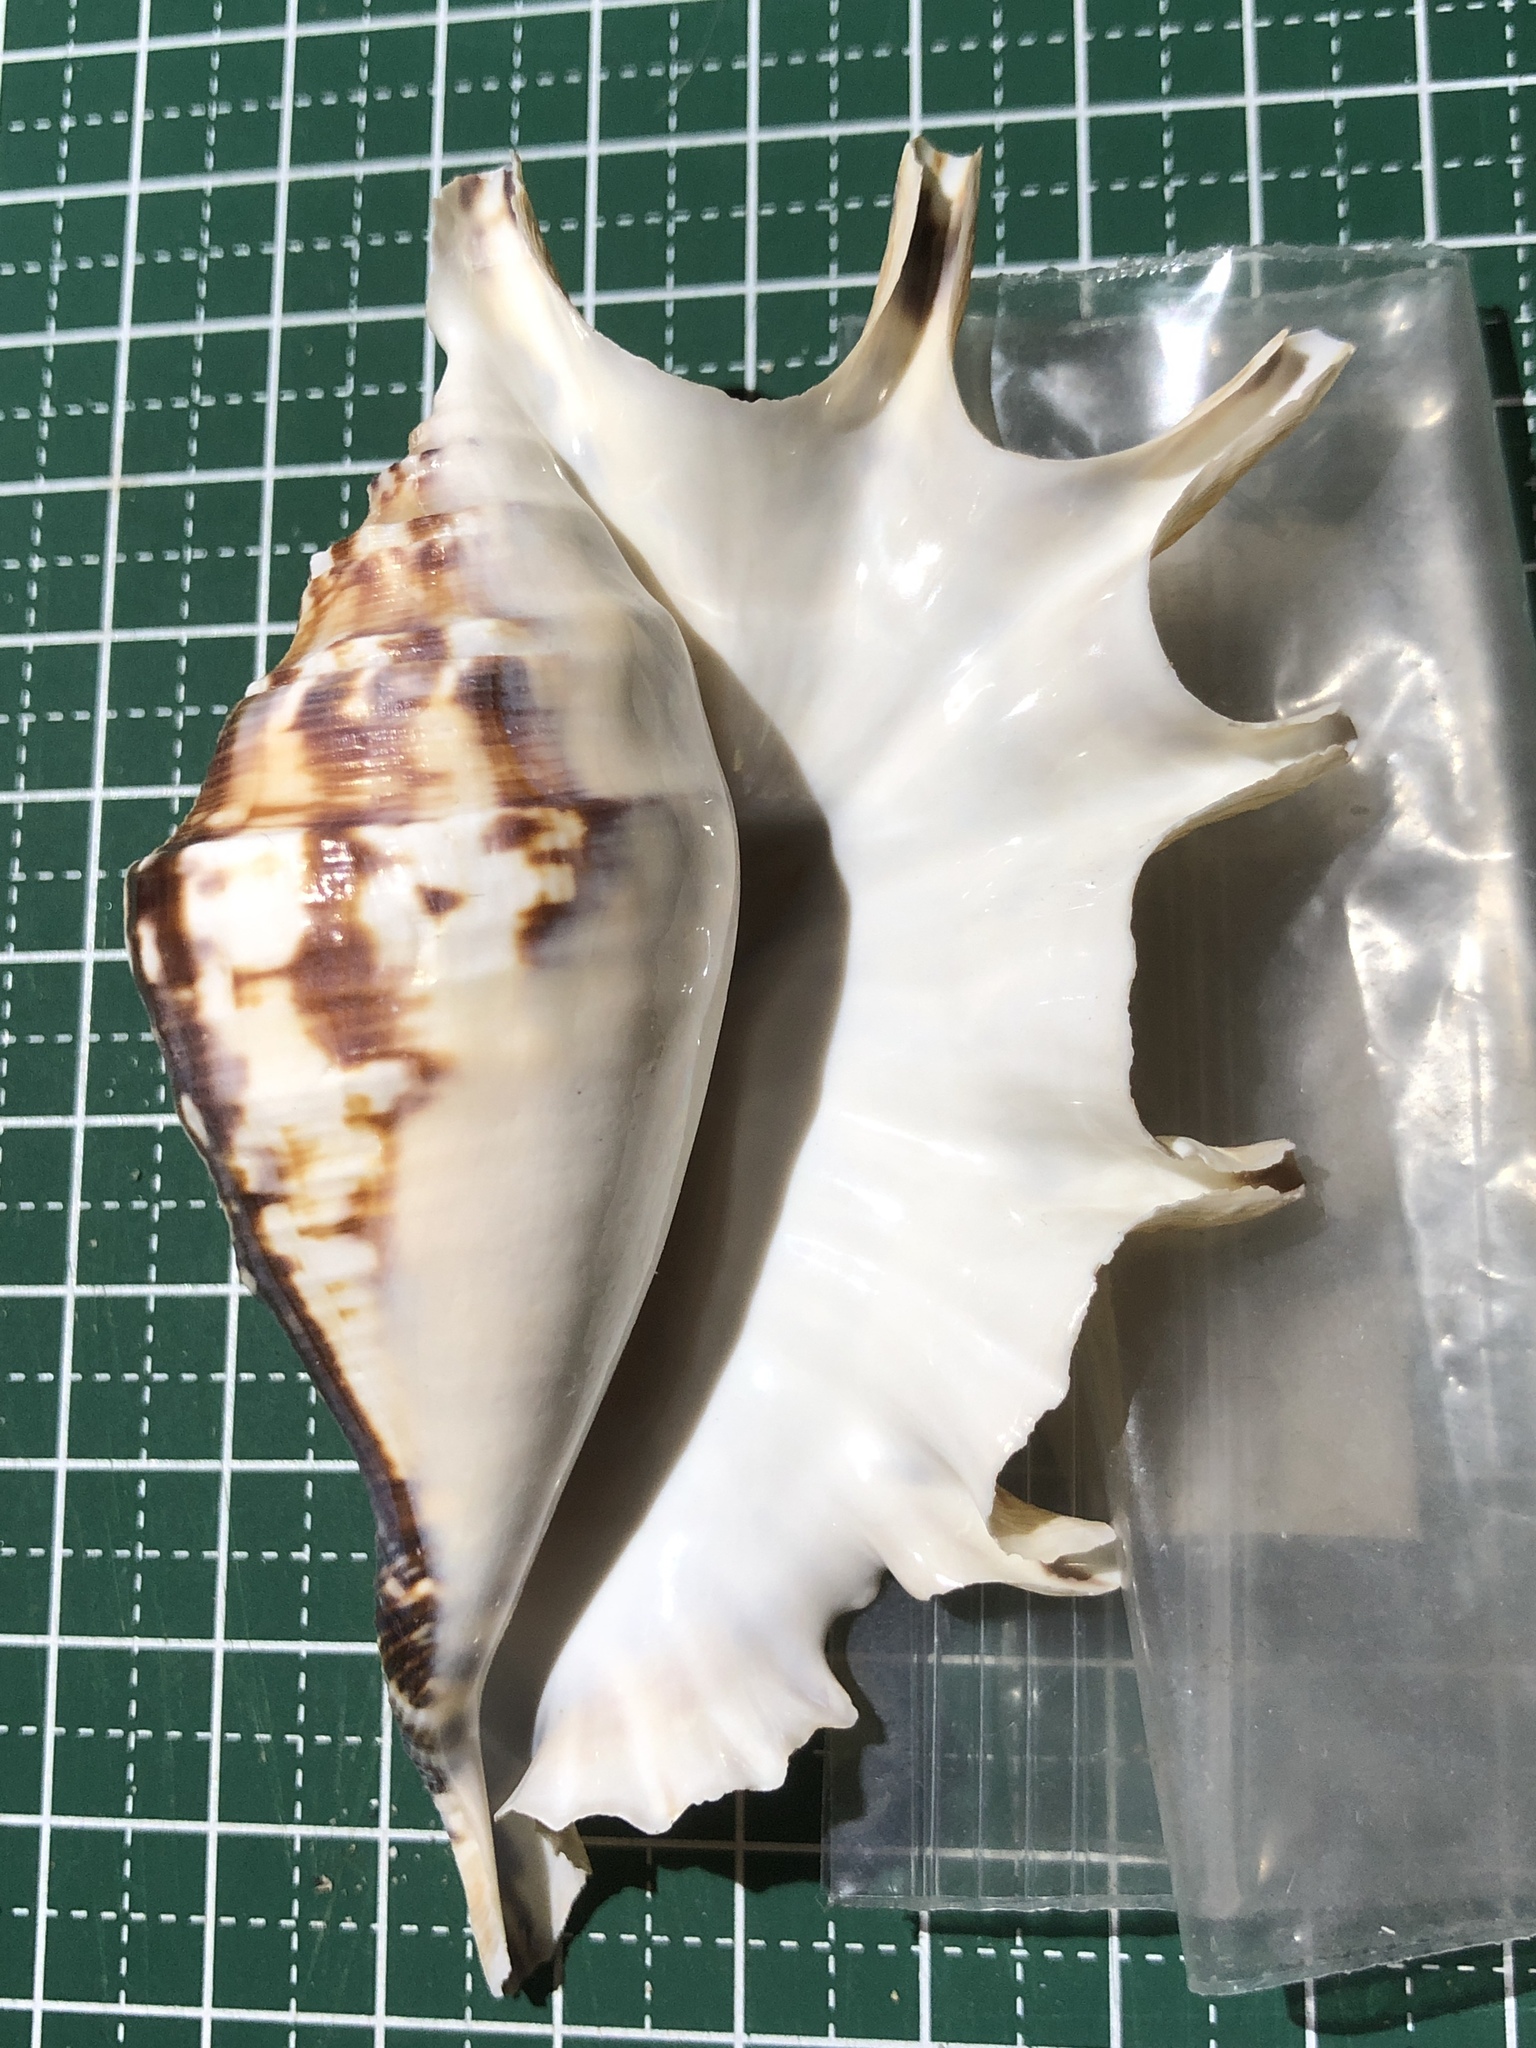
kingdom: Animalia
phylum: Mollusca
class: Gastropoda
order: Littorinimorpha
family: Strombidae
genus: Lambis
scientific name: Lambis lambis
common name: Common spider conch
